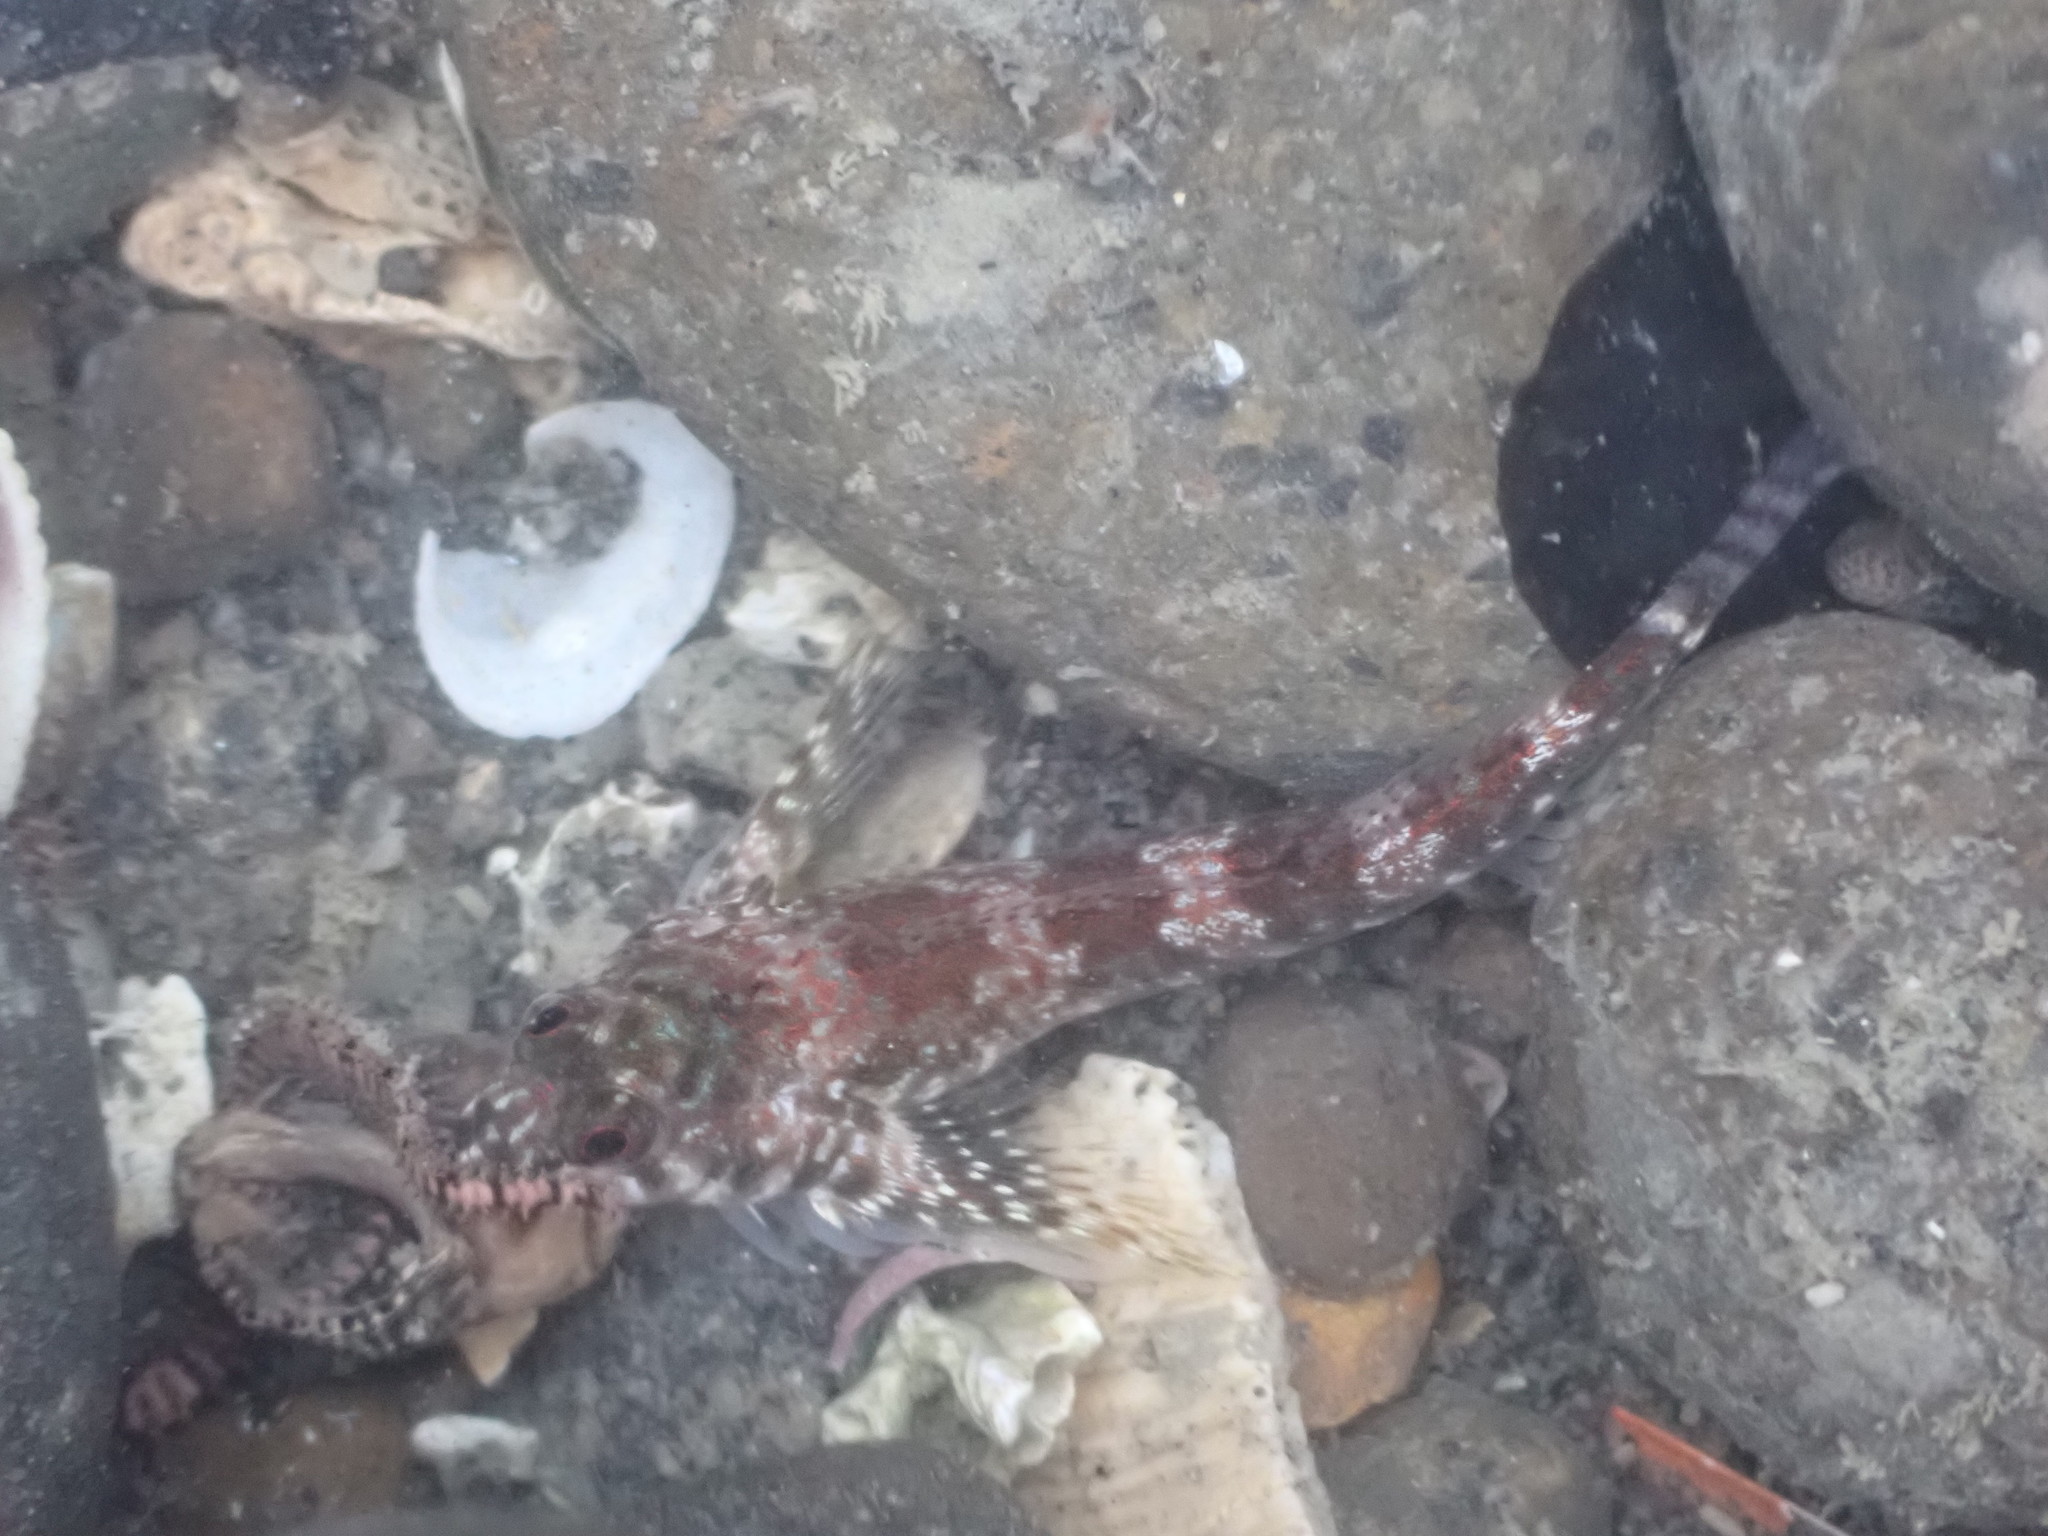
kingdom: Animalia
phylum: Chordata
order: Perciformes
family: Tripterygiidae
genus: Bellapiscis
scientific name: Bellapiscis lesleyae
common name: Mottled twister
